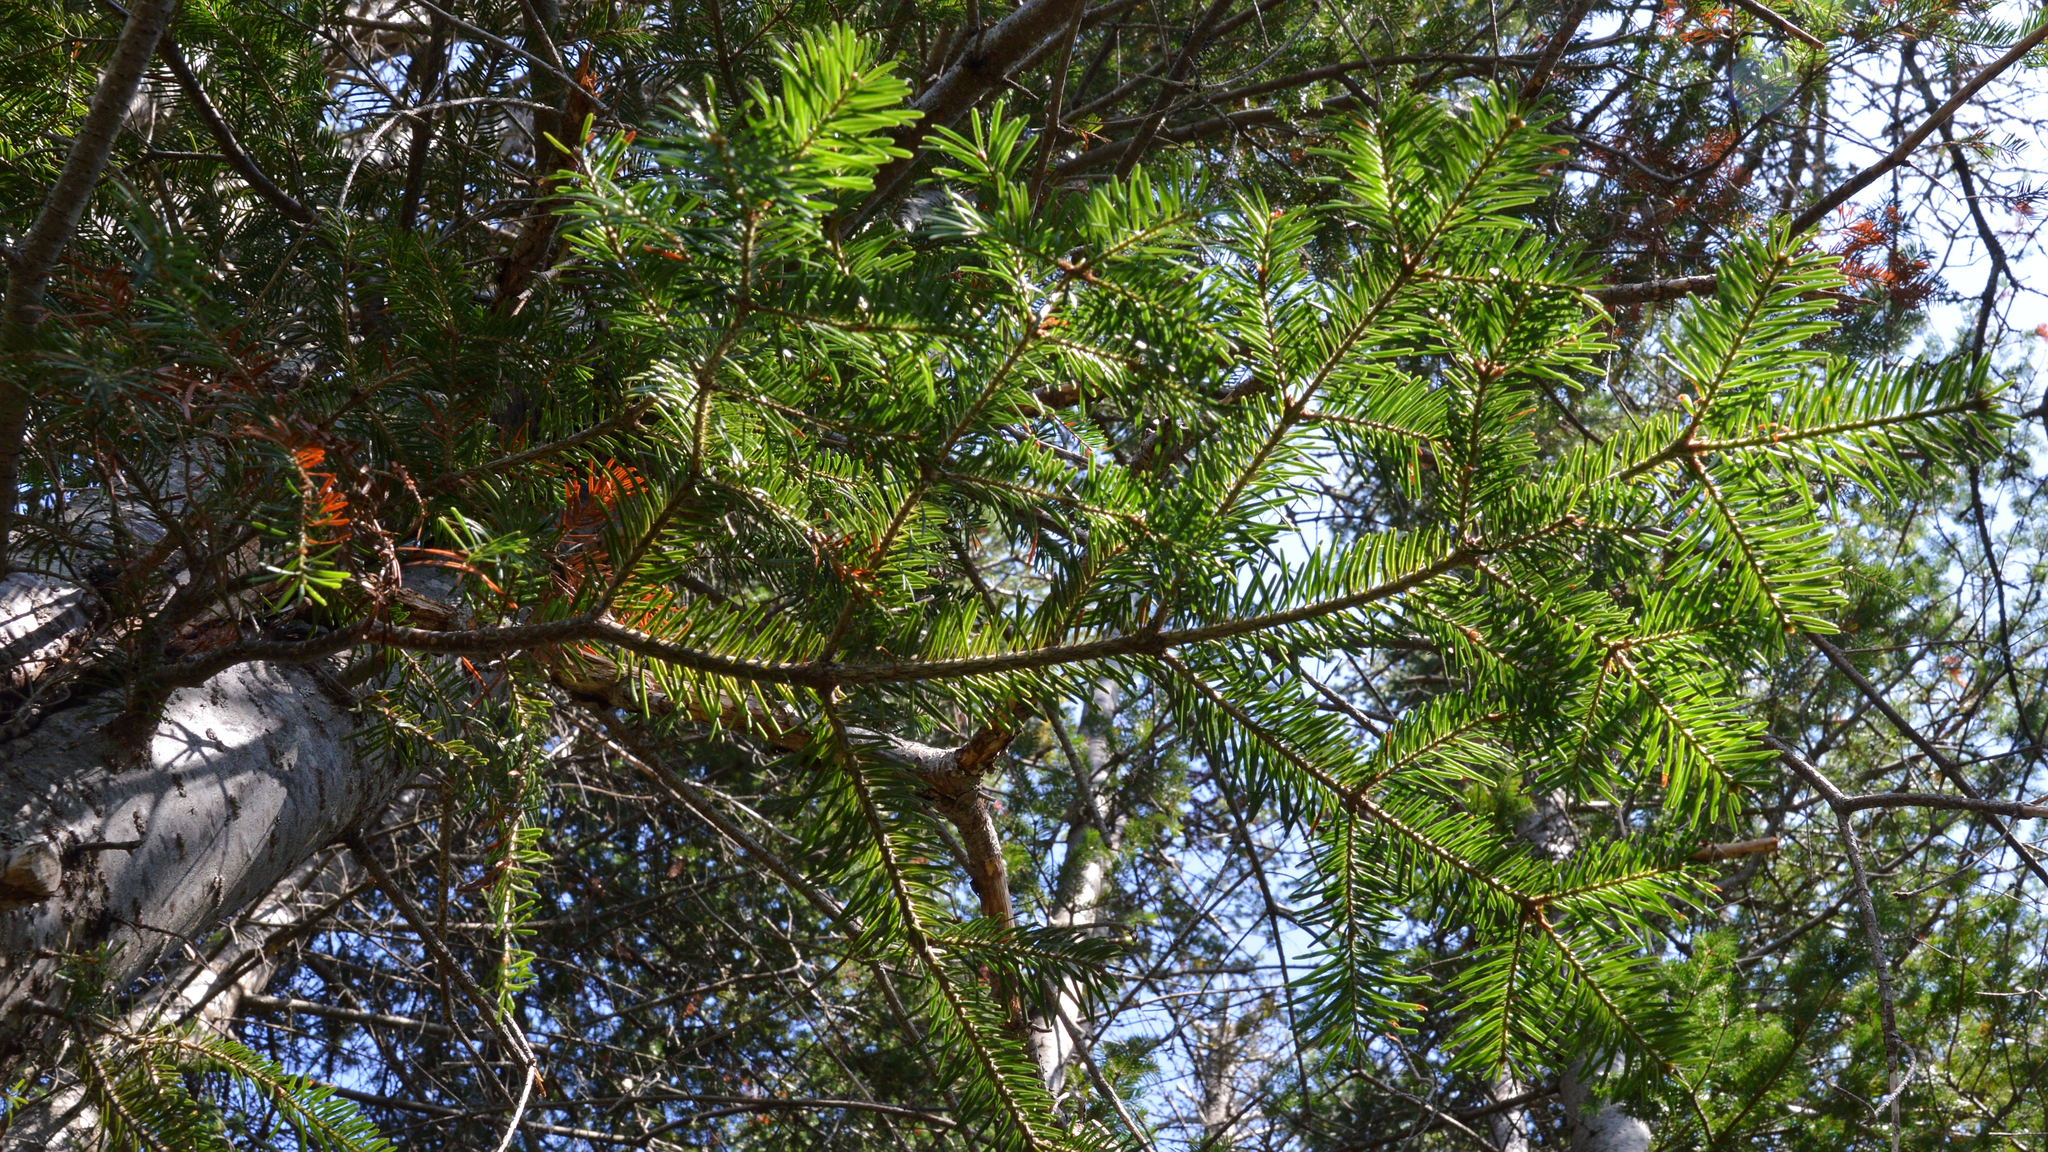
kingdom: Plantae
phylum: Tracheophyta
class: Pinopsida
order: Pinales
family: Pinaceae
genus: Abies
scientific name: Abies balsamea
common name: Balsam fir
